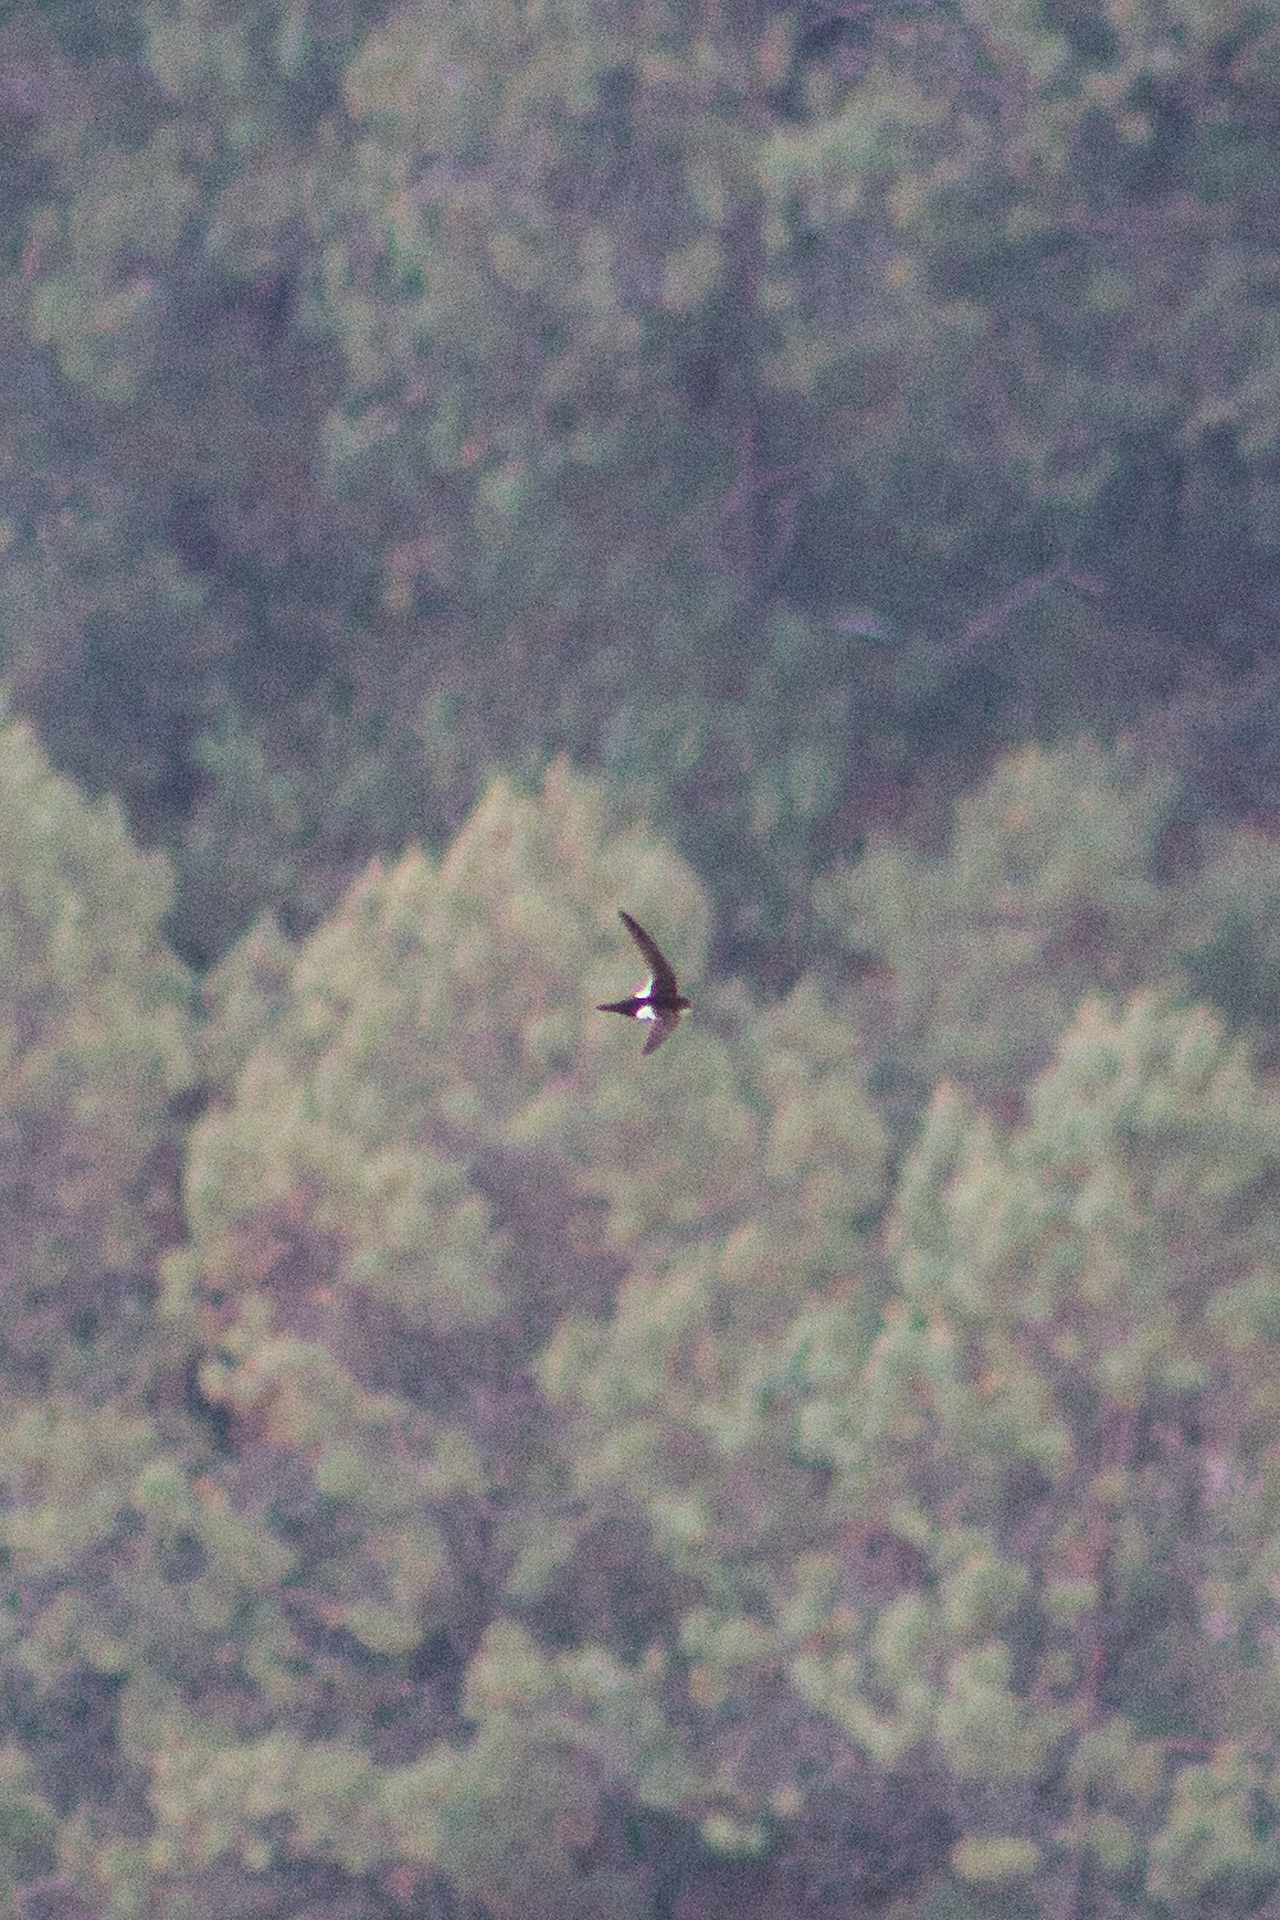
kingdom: Animalia
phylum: Chordata
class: Aves
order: Apodiformes
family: Apodidae
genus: Aeronautes
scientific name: Aeronautes saxatalis
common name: White-throated swift
